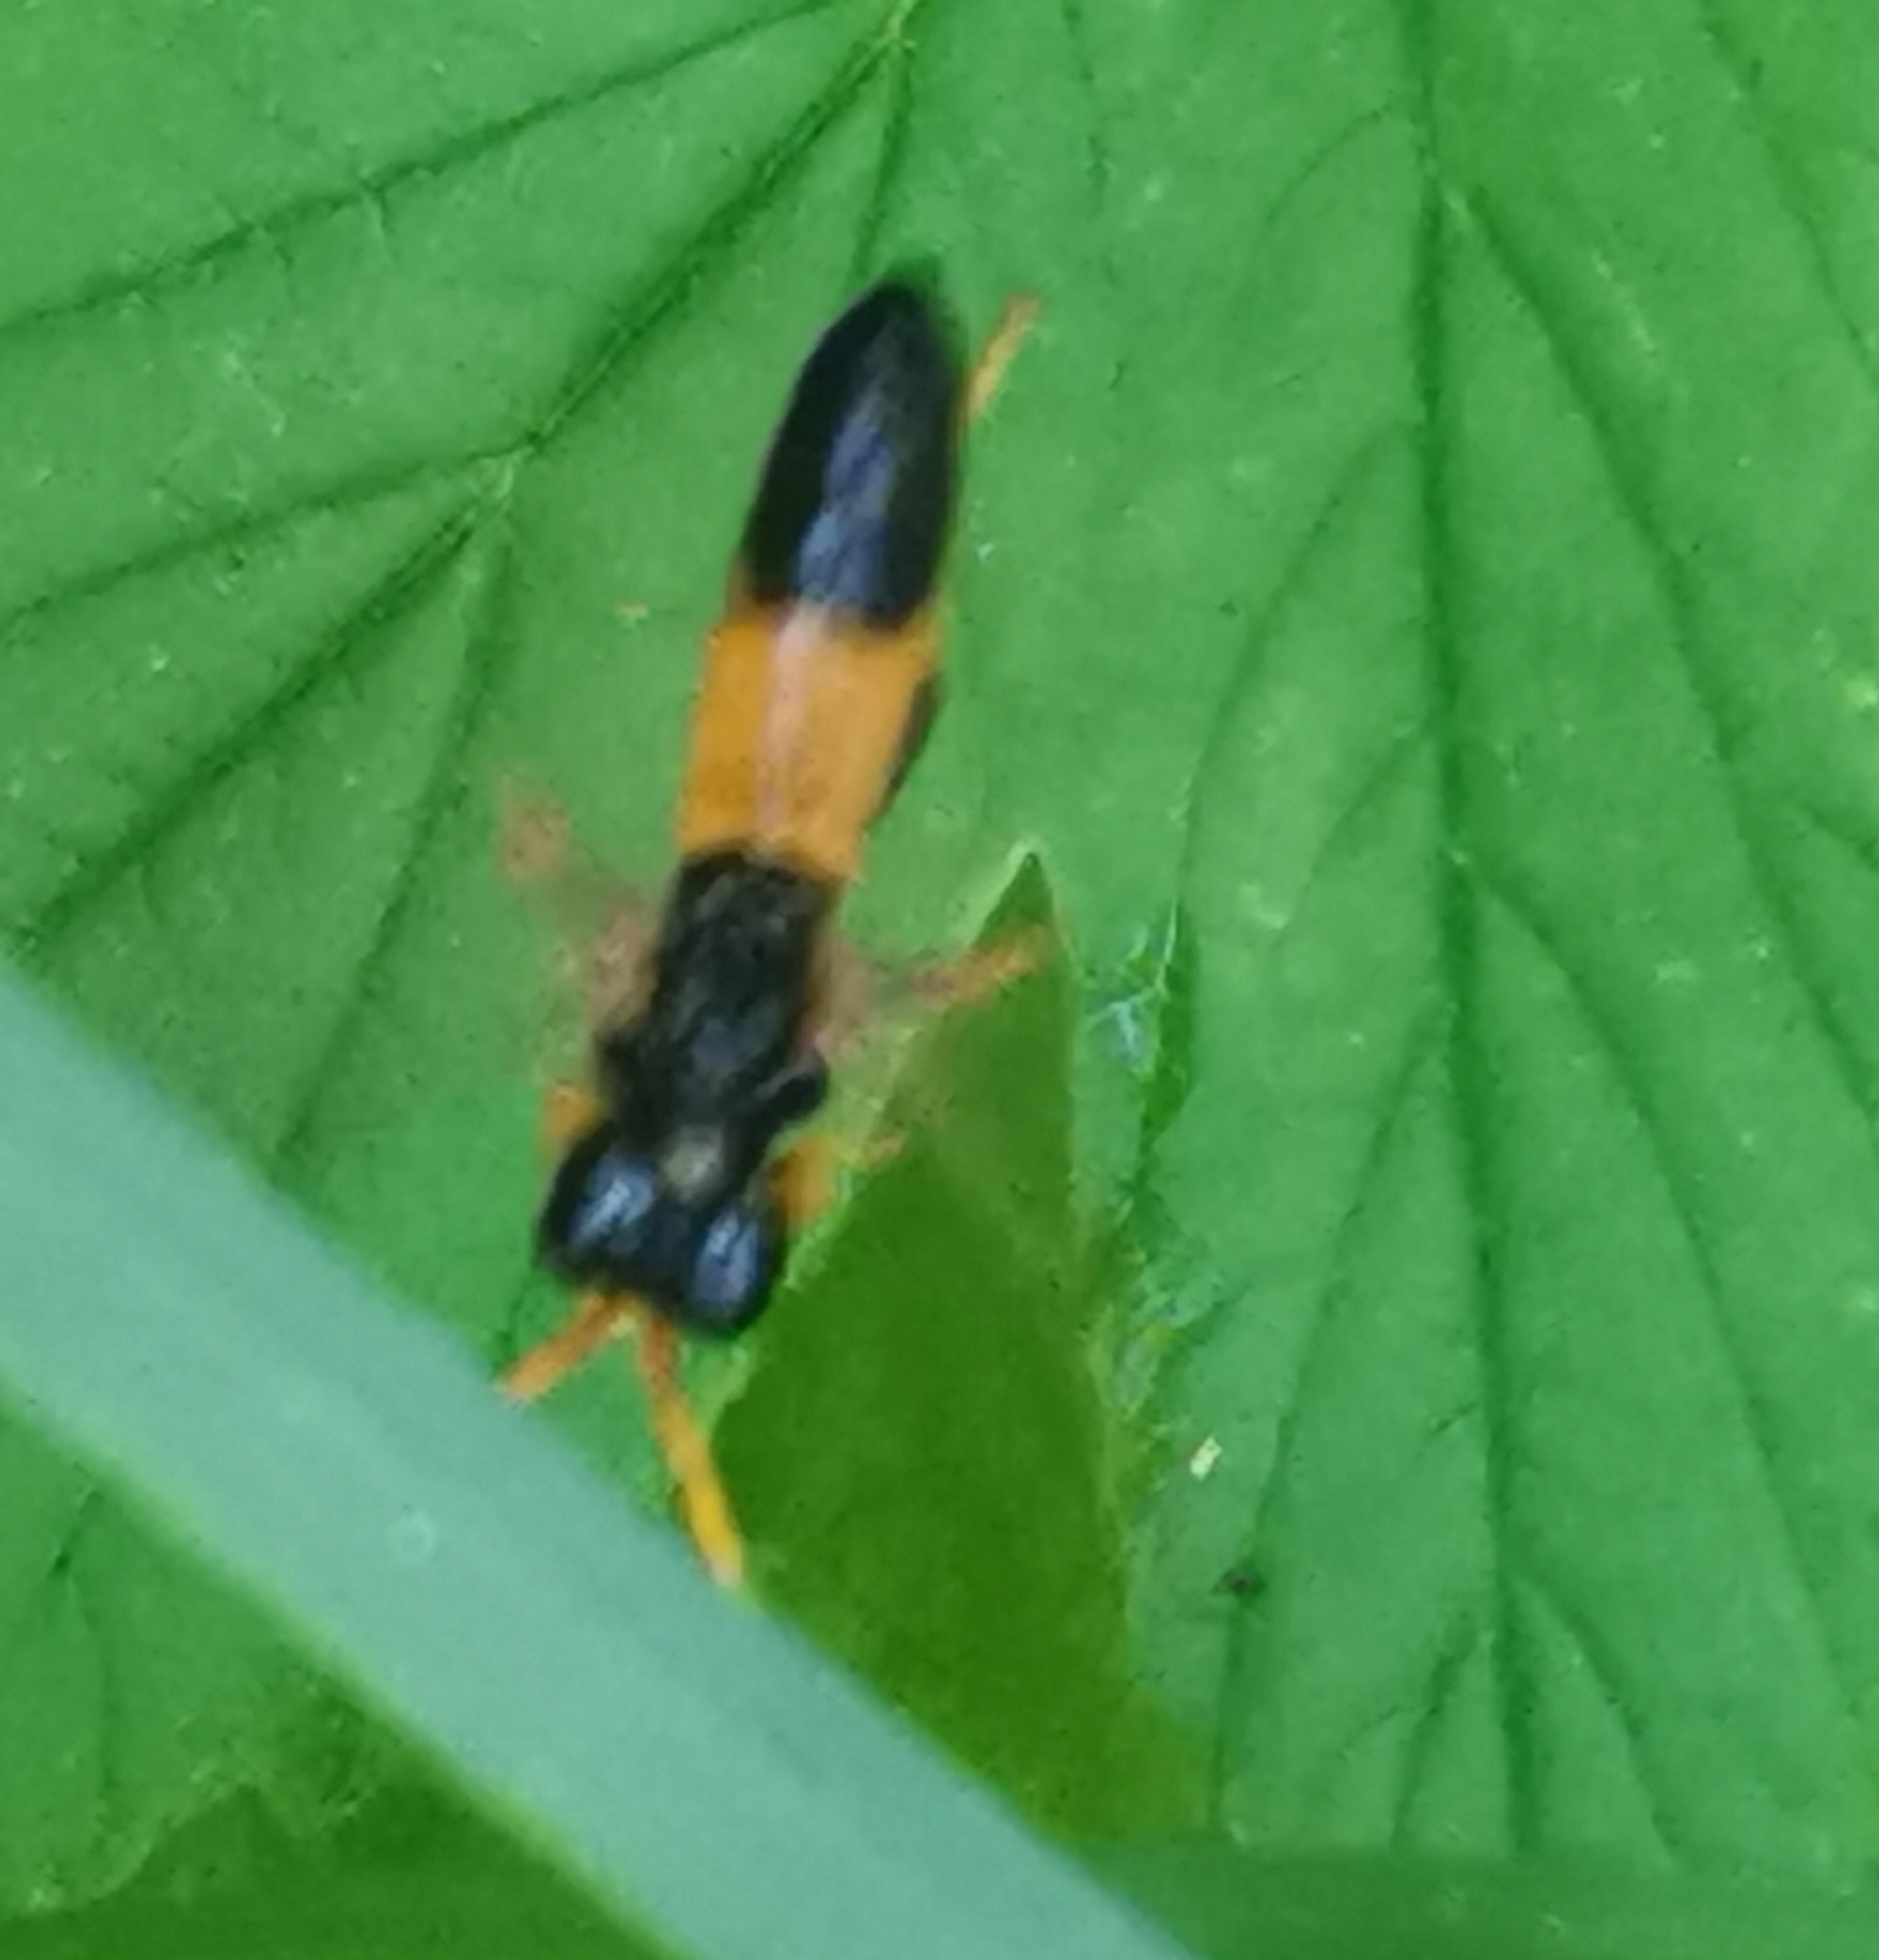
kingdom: Animalia
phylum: Arthropoda
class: Insecta
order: Hymenoptera
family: Tenthredinidae
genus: Tenthredo
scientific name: Tenthredo campestris
